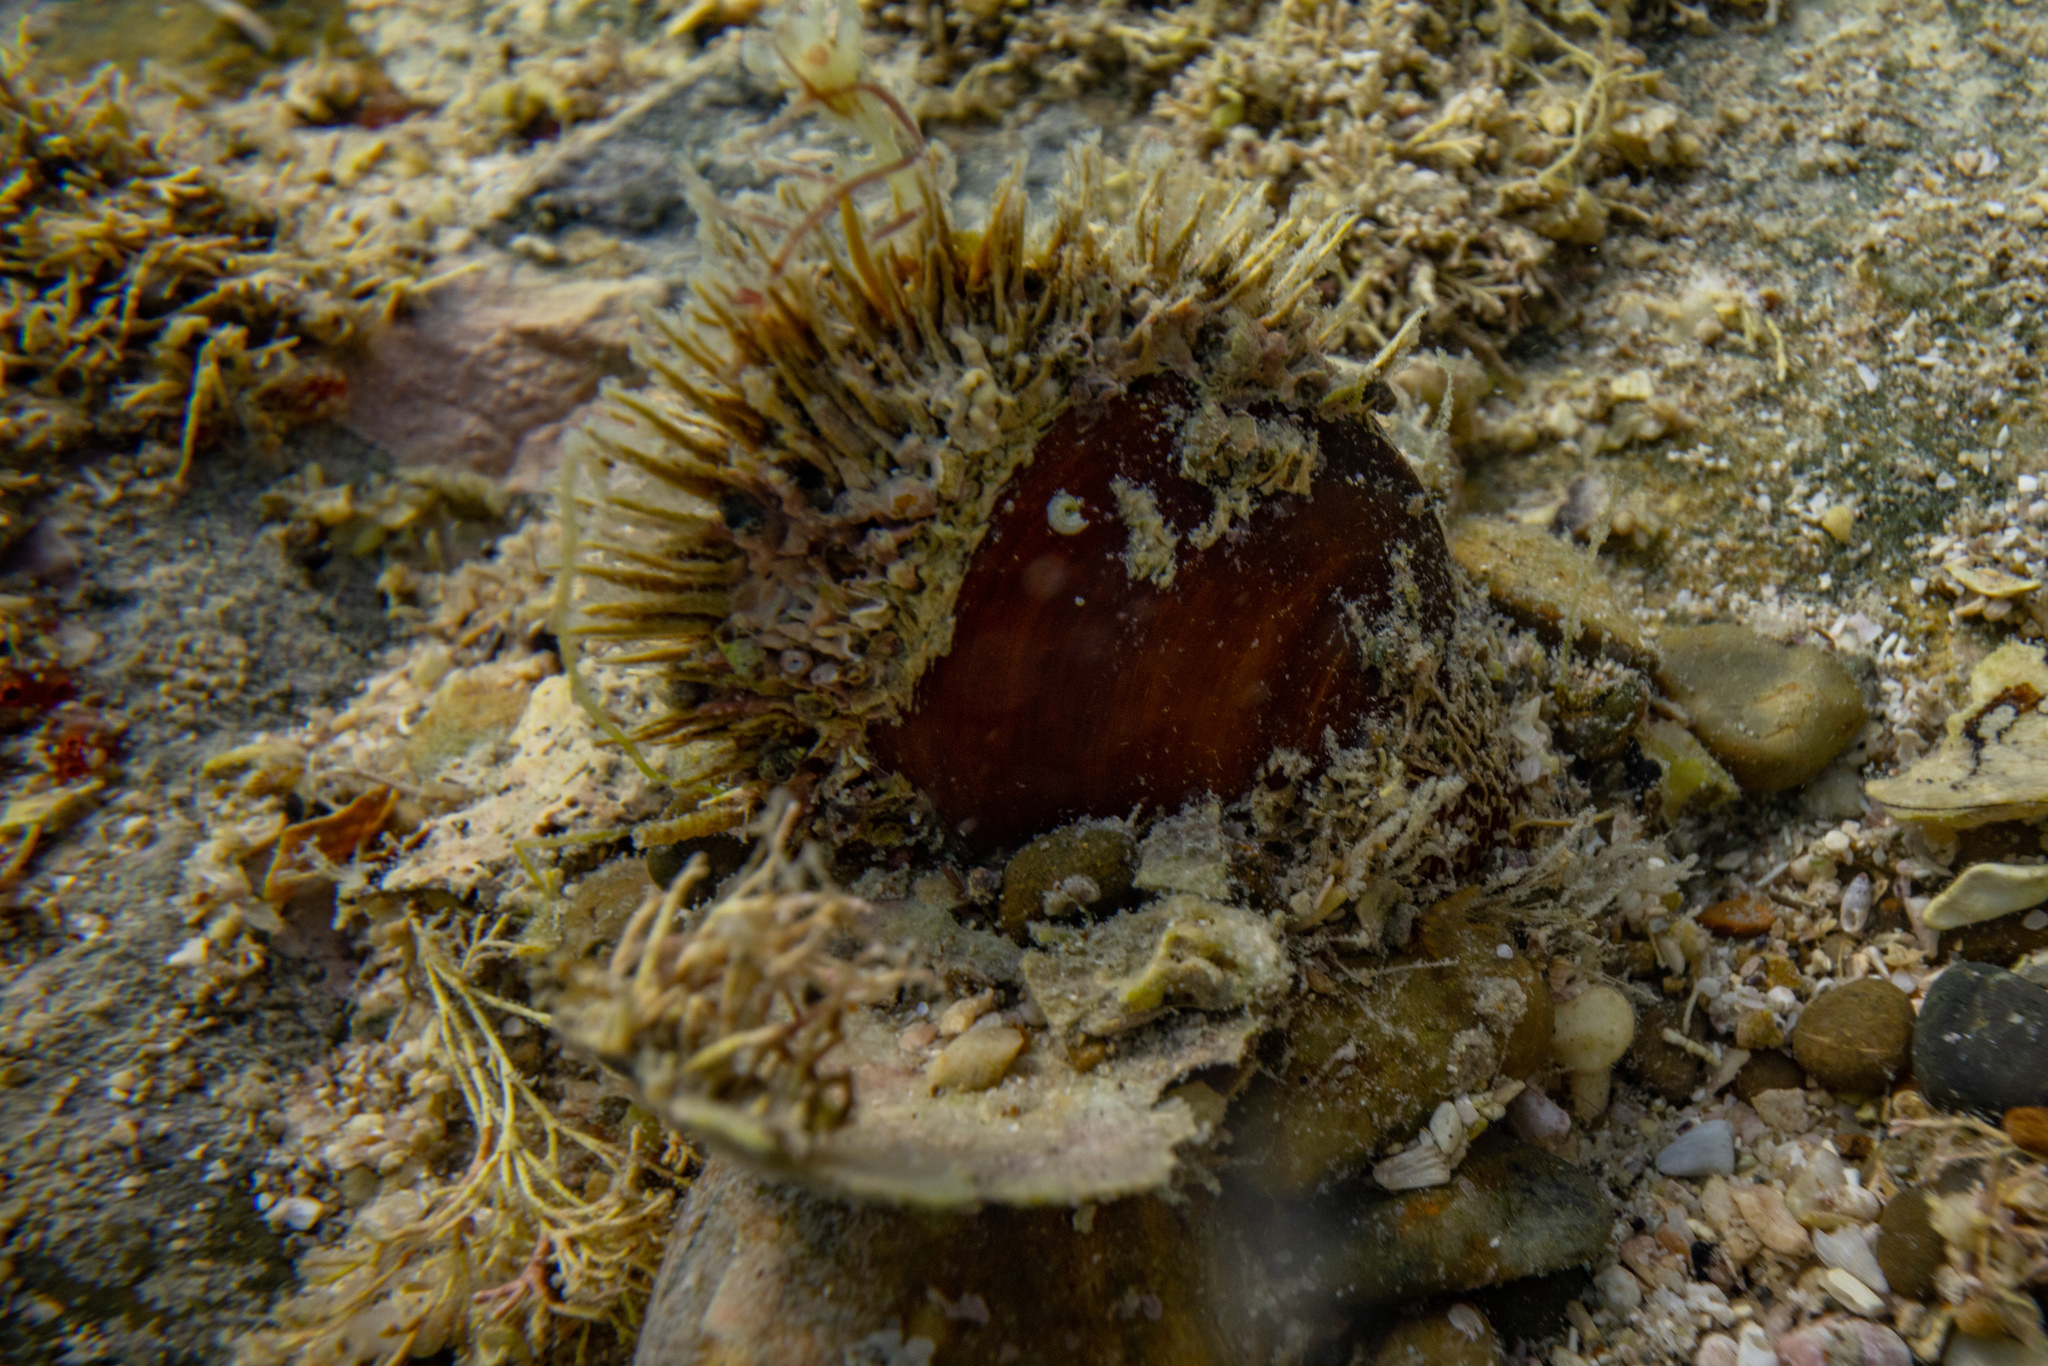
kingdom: Animalia
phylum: Mollusca
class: Bivalvia
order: Mytilida
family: Mytilidae
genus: Modiolus
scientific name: Modiolus areolatus
